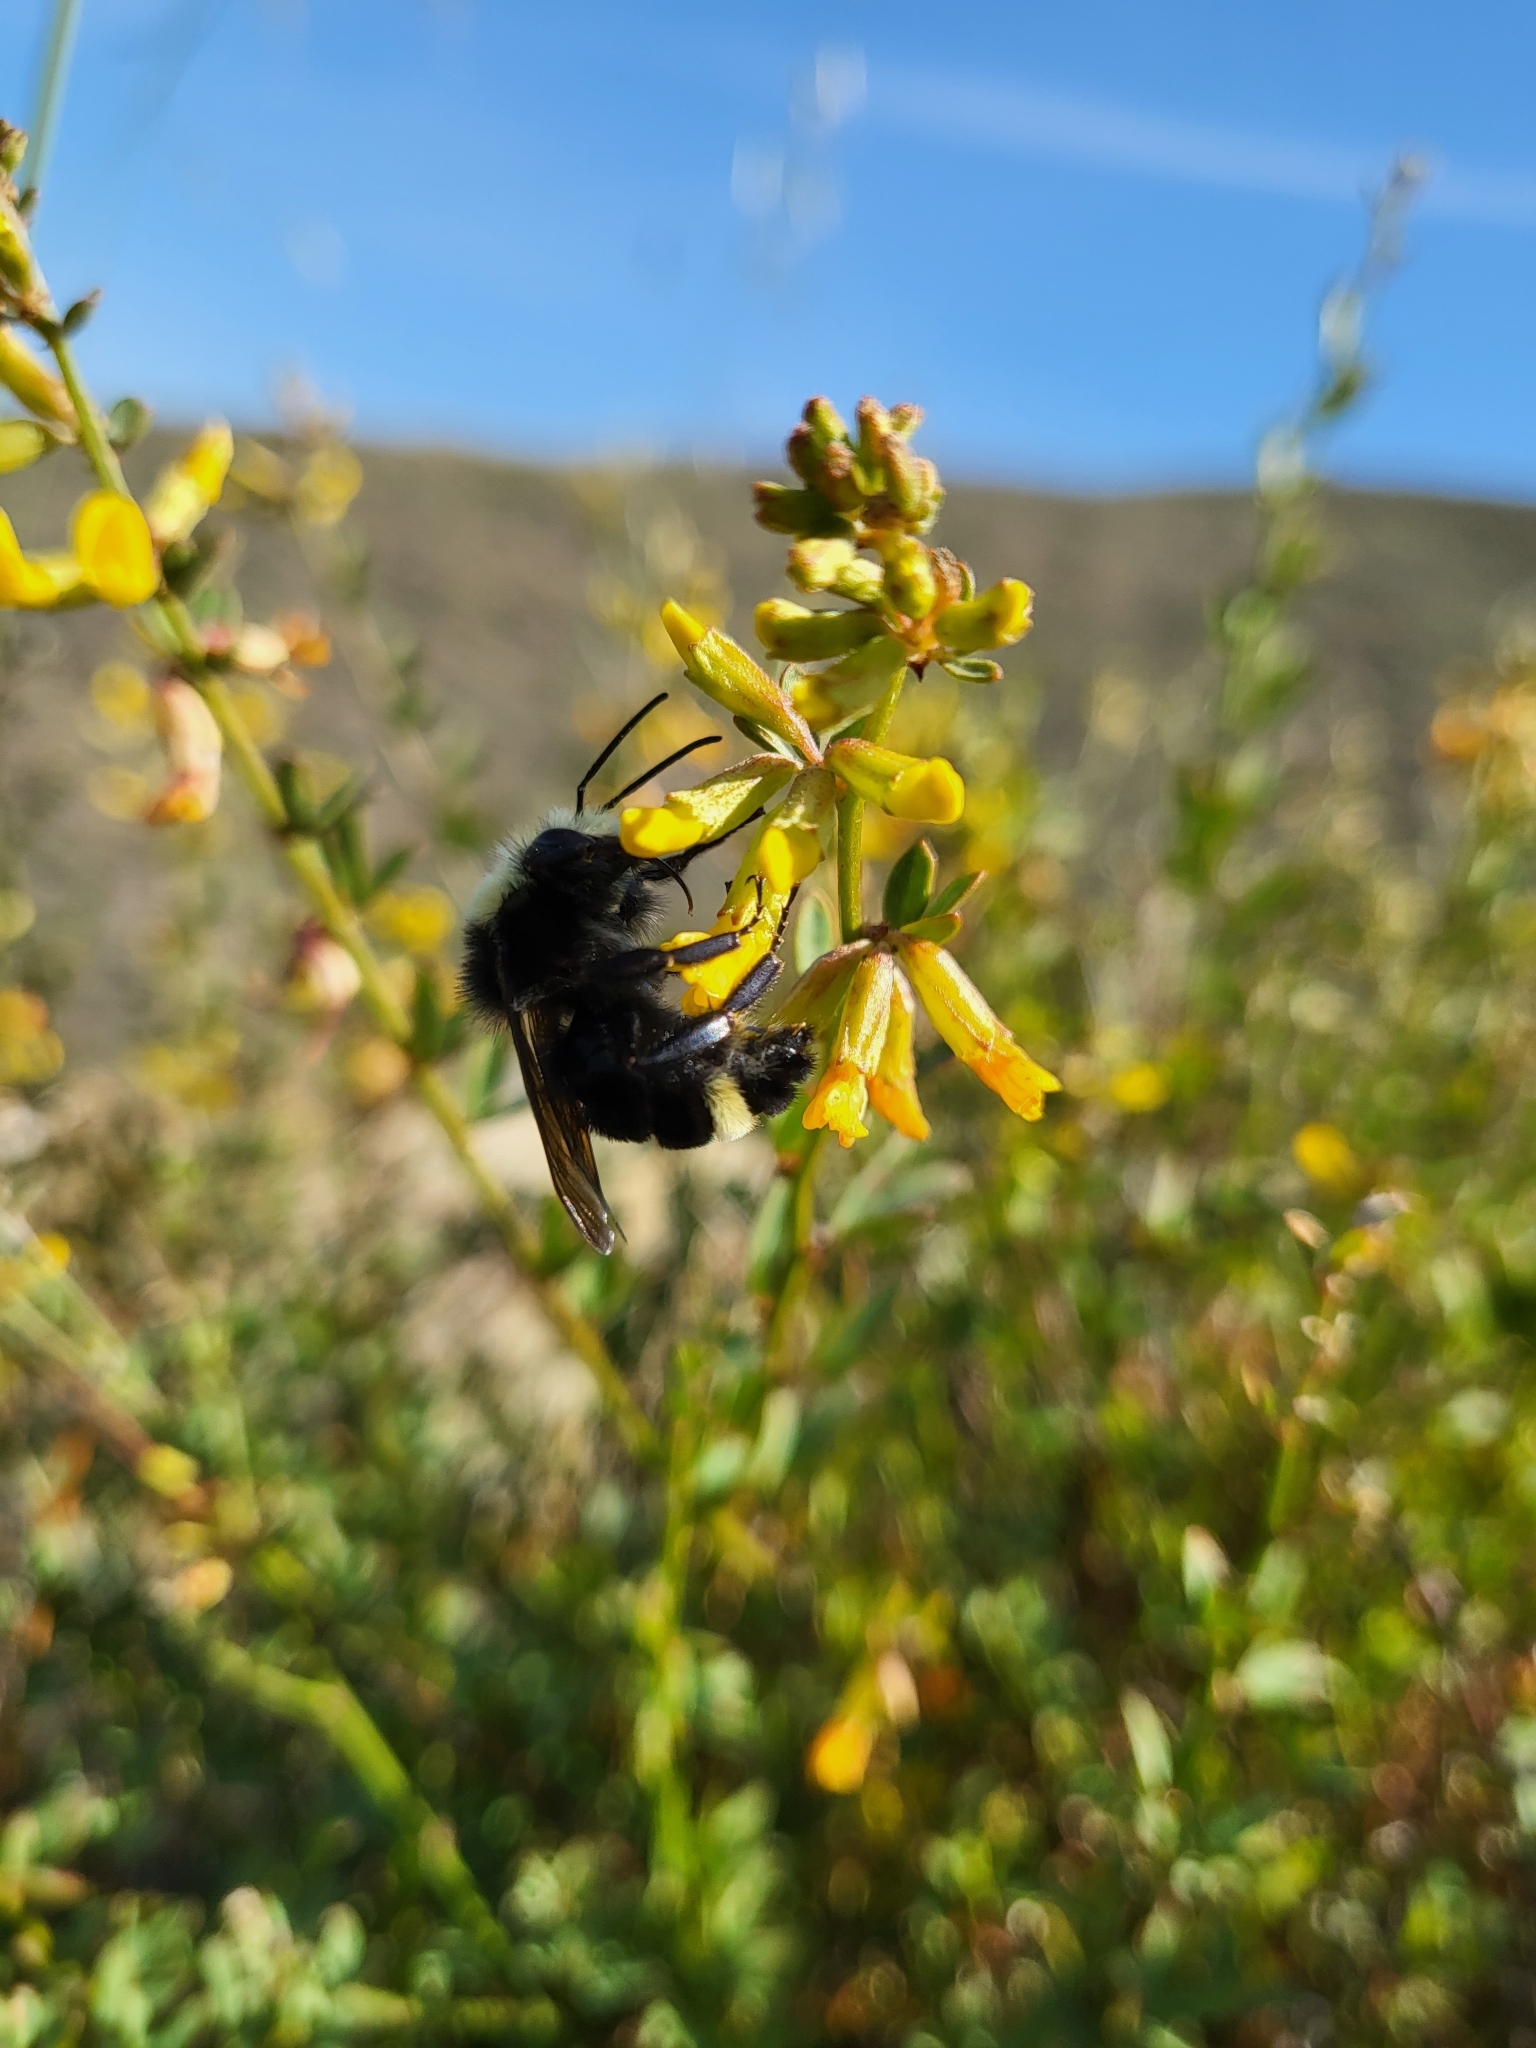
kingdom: Animalia
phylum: Arthropoda
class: Insecta
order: Hymenoptera
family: Apidae
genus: Bombus
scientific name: Bombus vosnesenskii
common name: Vosnesensky bumble bee
